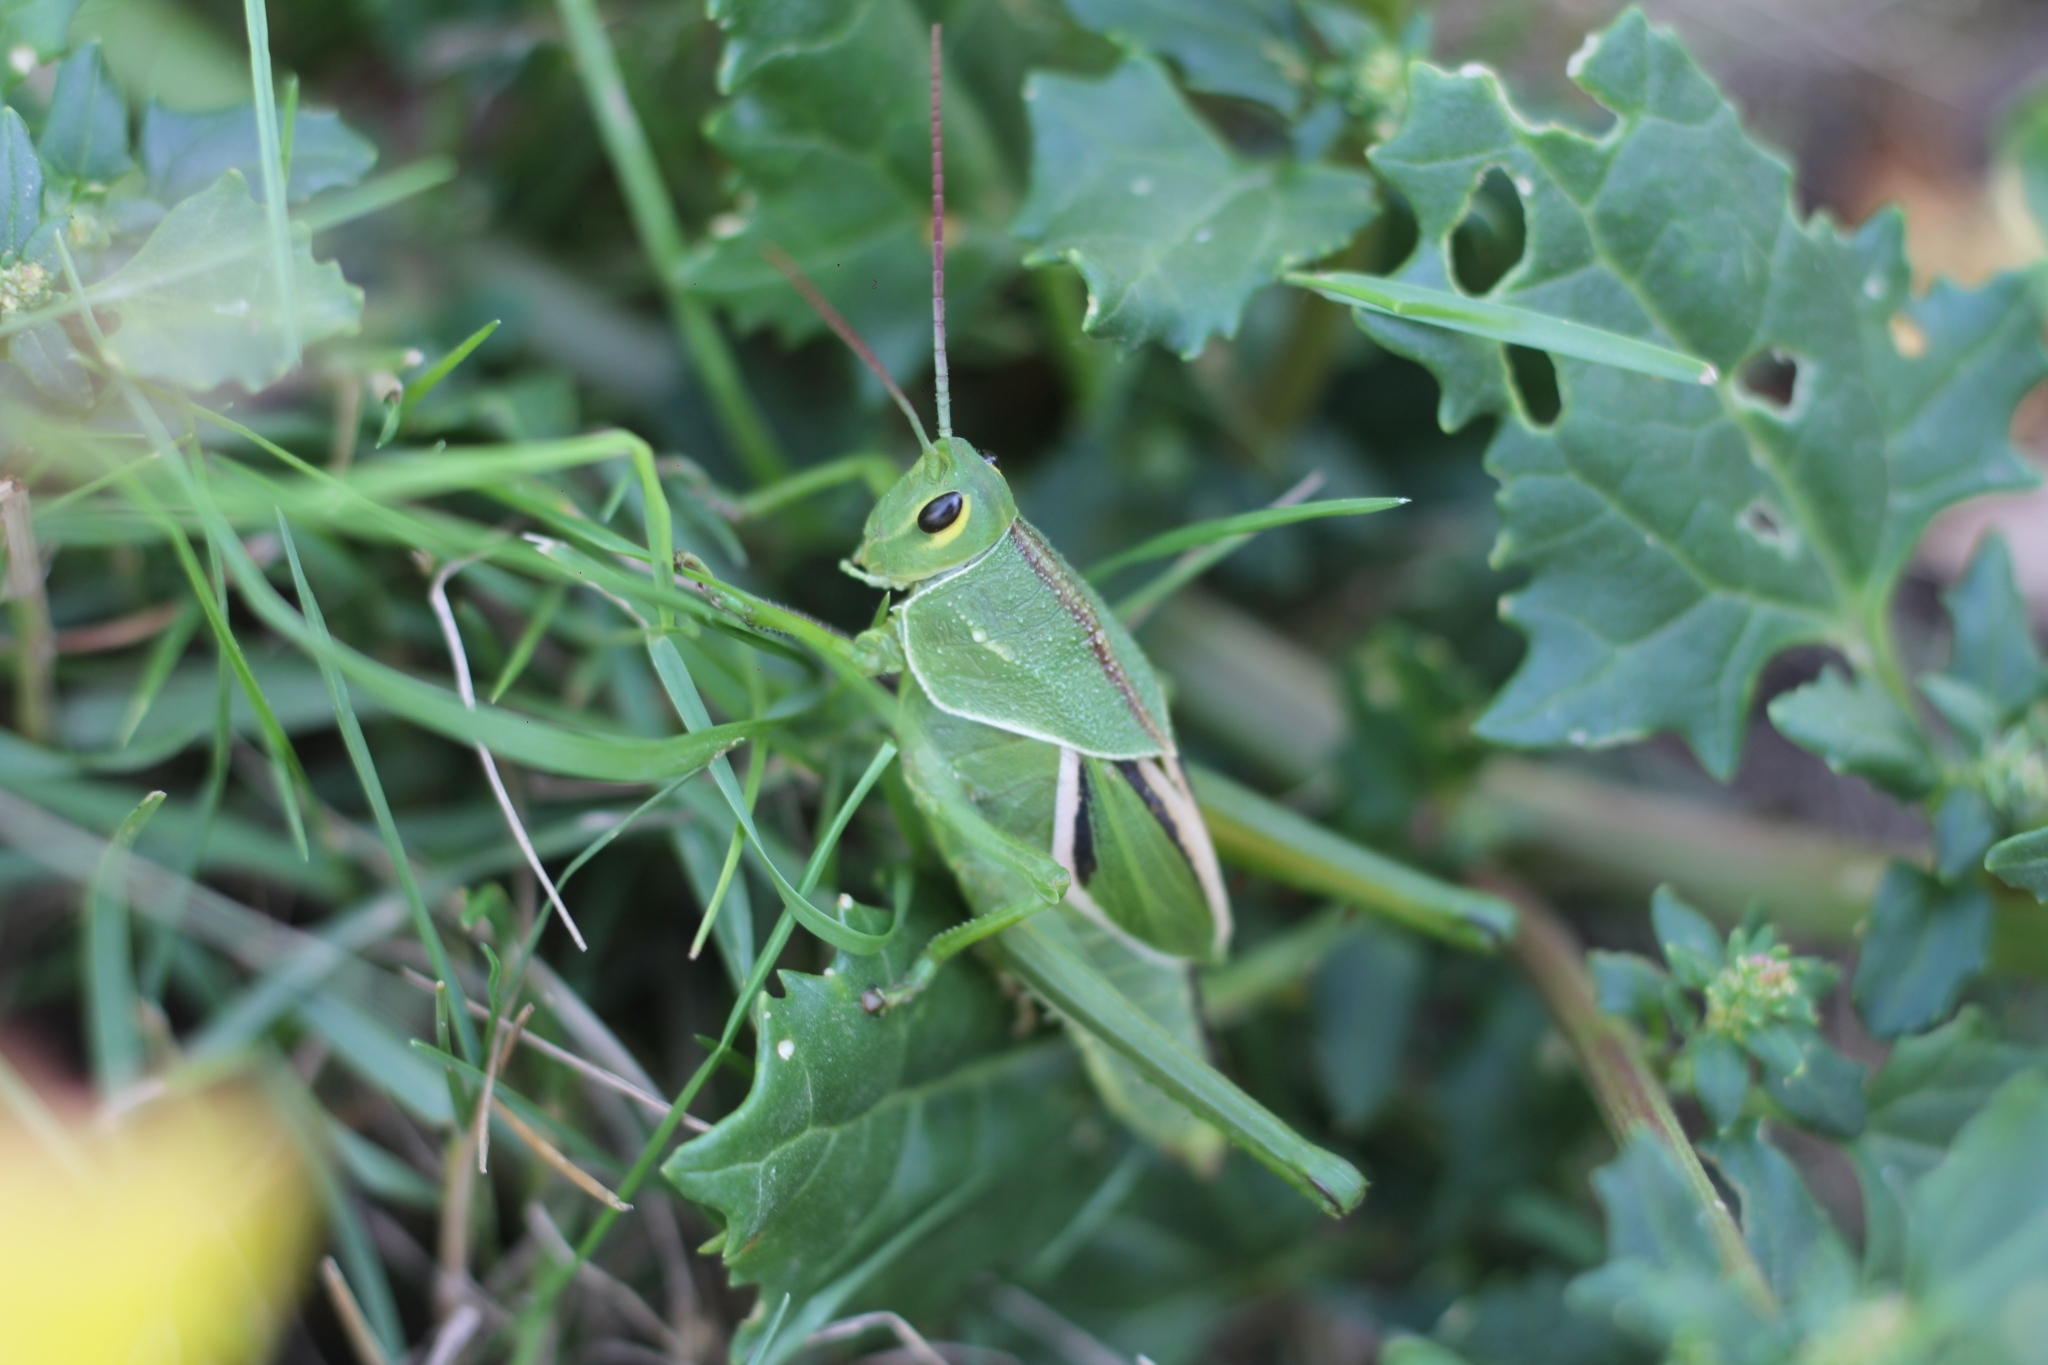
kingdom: Animalia
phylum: Arthropoda
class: Insecta
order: Orthoptera
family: Romaleidae
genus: Staleochlora
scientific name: Staleochlora viridicata
